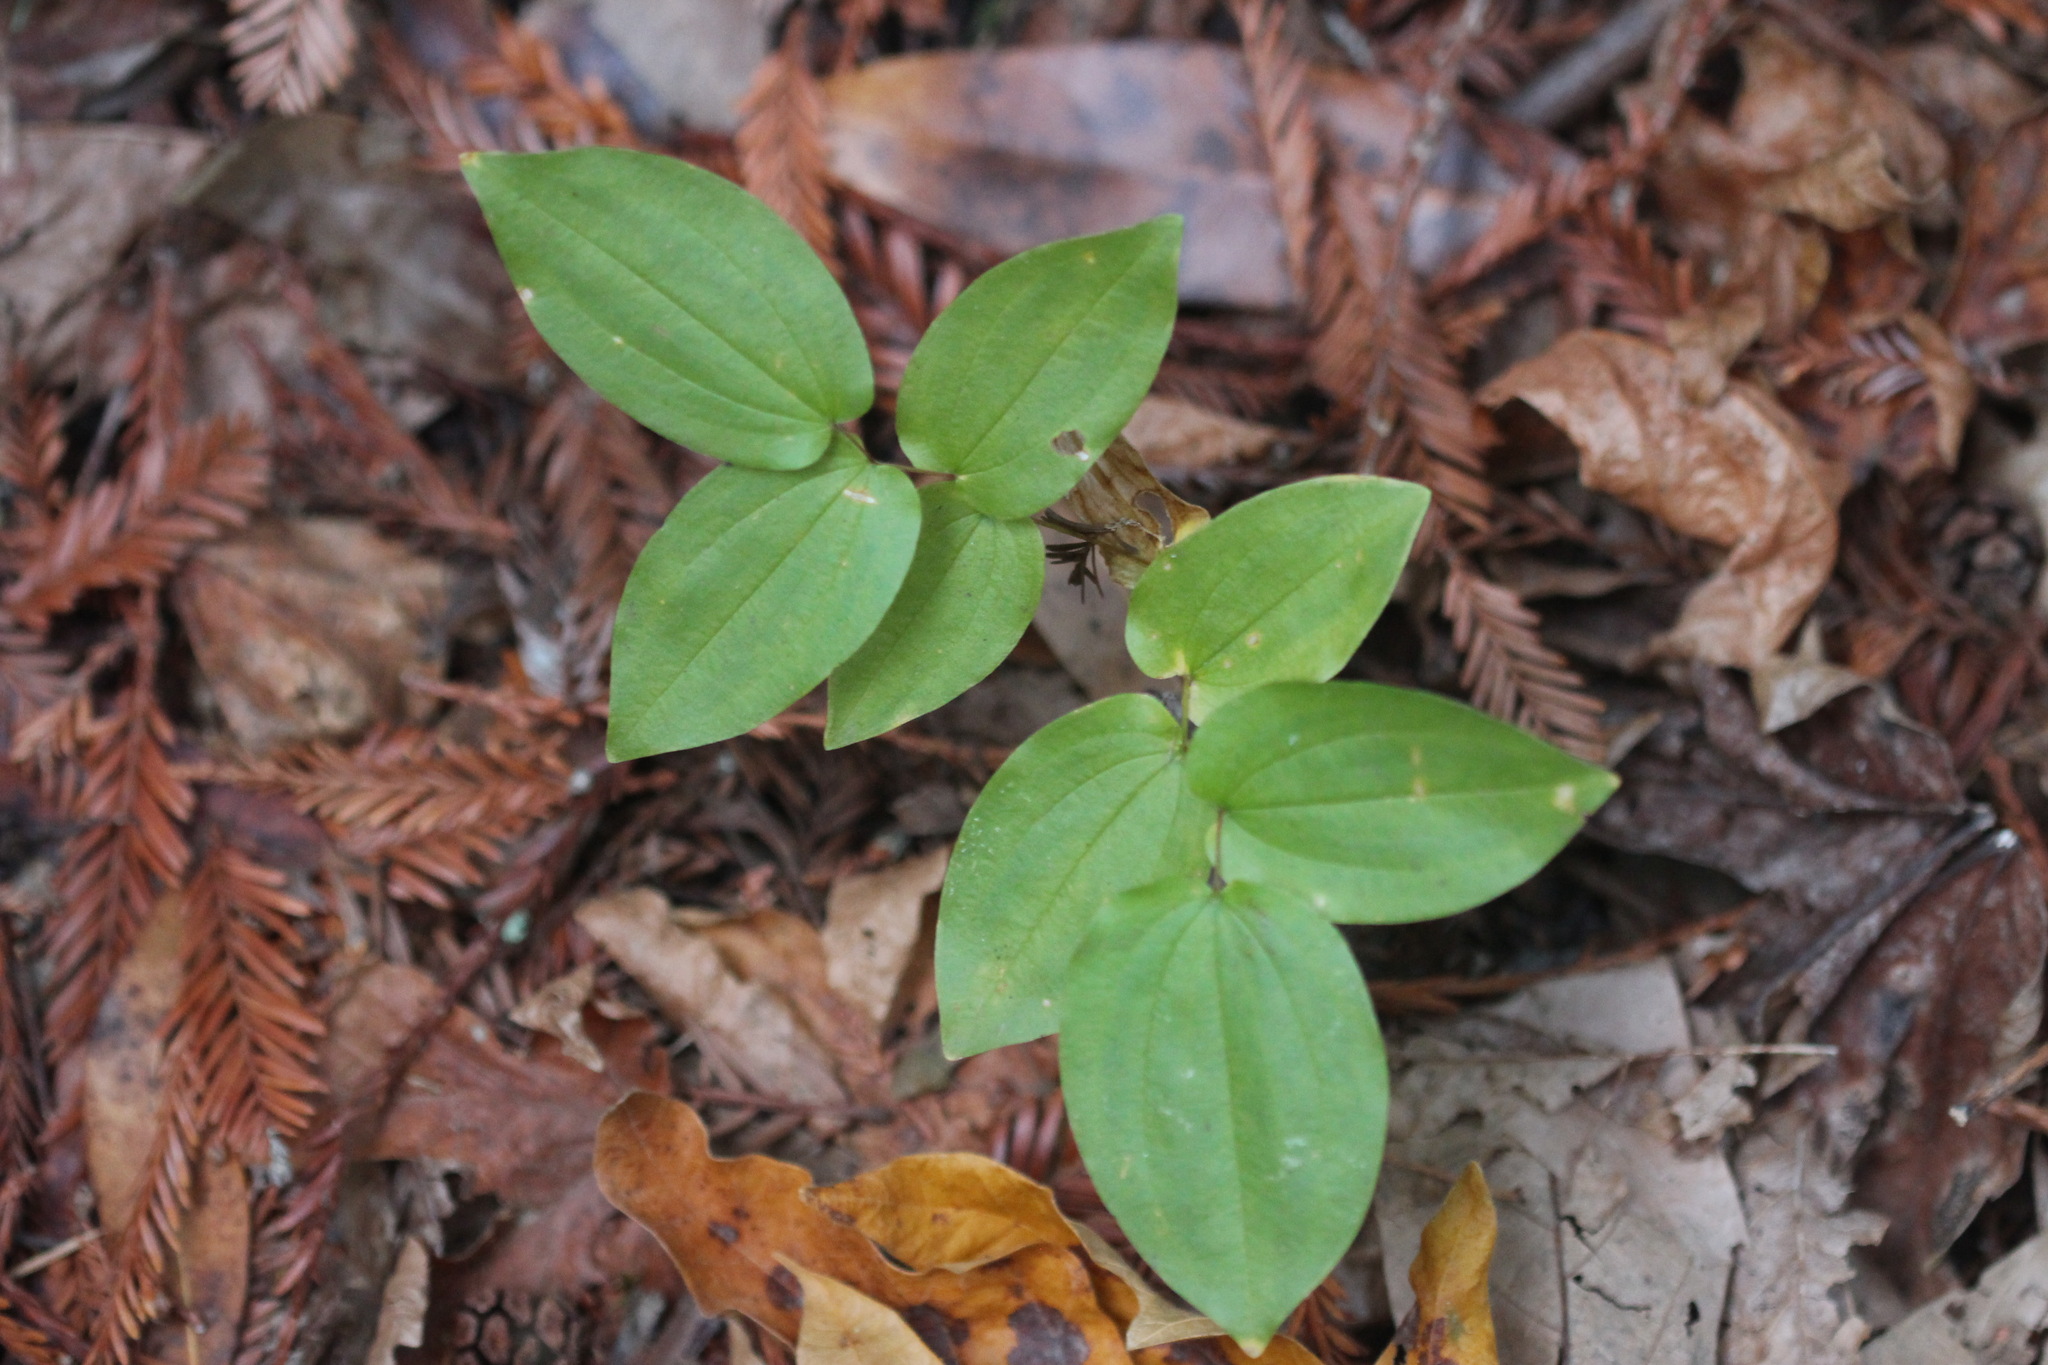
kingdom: Plantae
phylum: Tracheophyta
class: Liliopsida
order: Liliales
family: Liliaceae
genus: Prosartes
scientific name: Prosartes hookeri
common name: Fairy-bells
